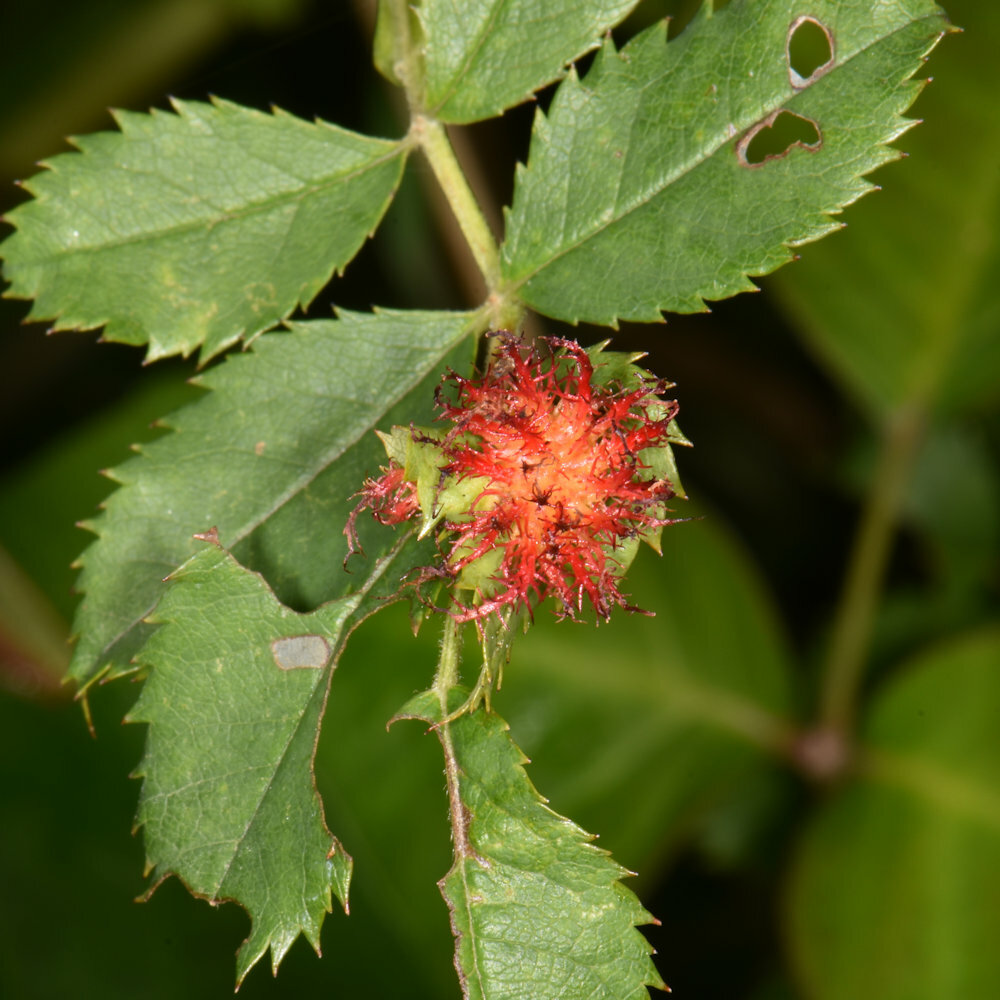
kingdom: Animalia
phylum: Arthropoda
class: Insecta
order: Hymenoptera
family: Cynipidae
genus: Diplolepis
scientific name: Diplolepis rosae
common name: Bedeguar gall
